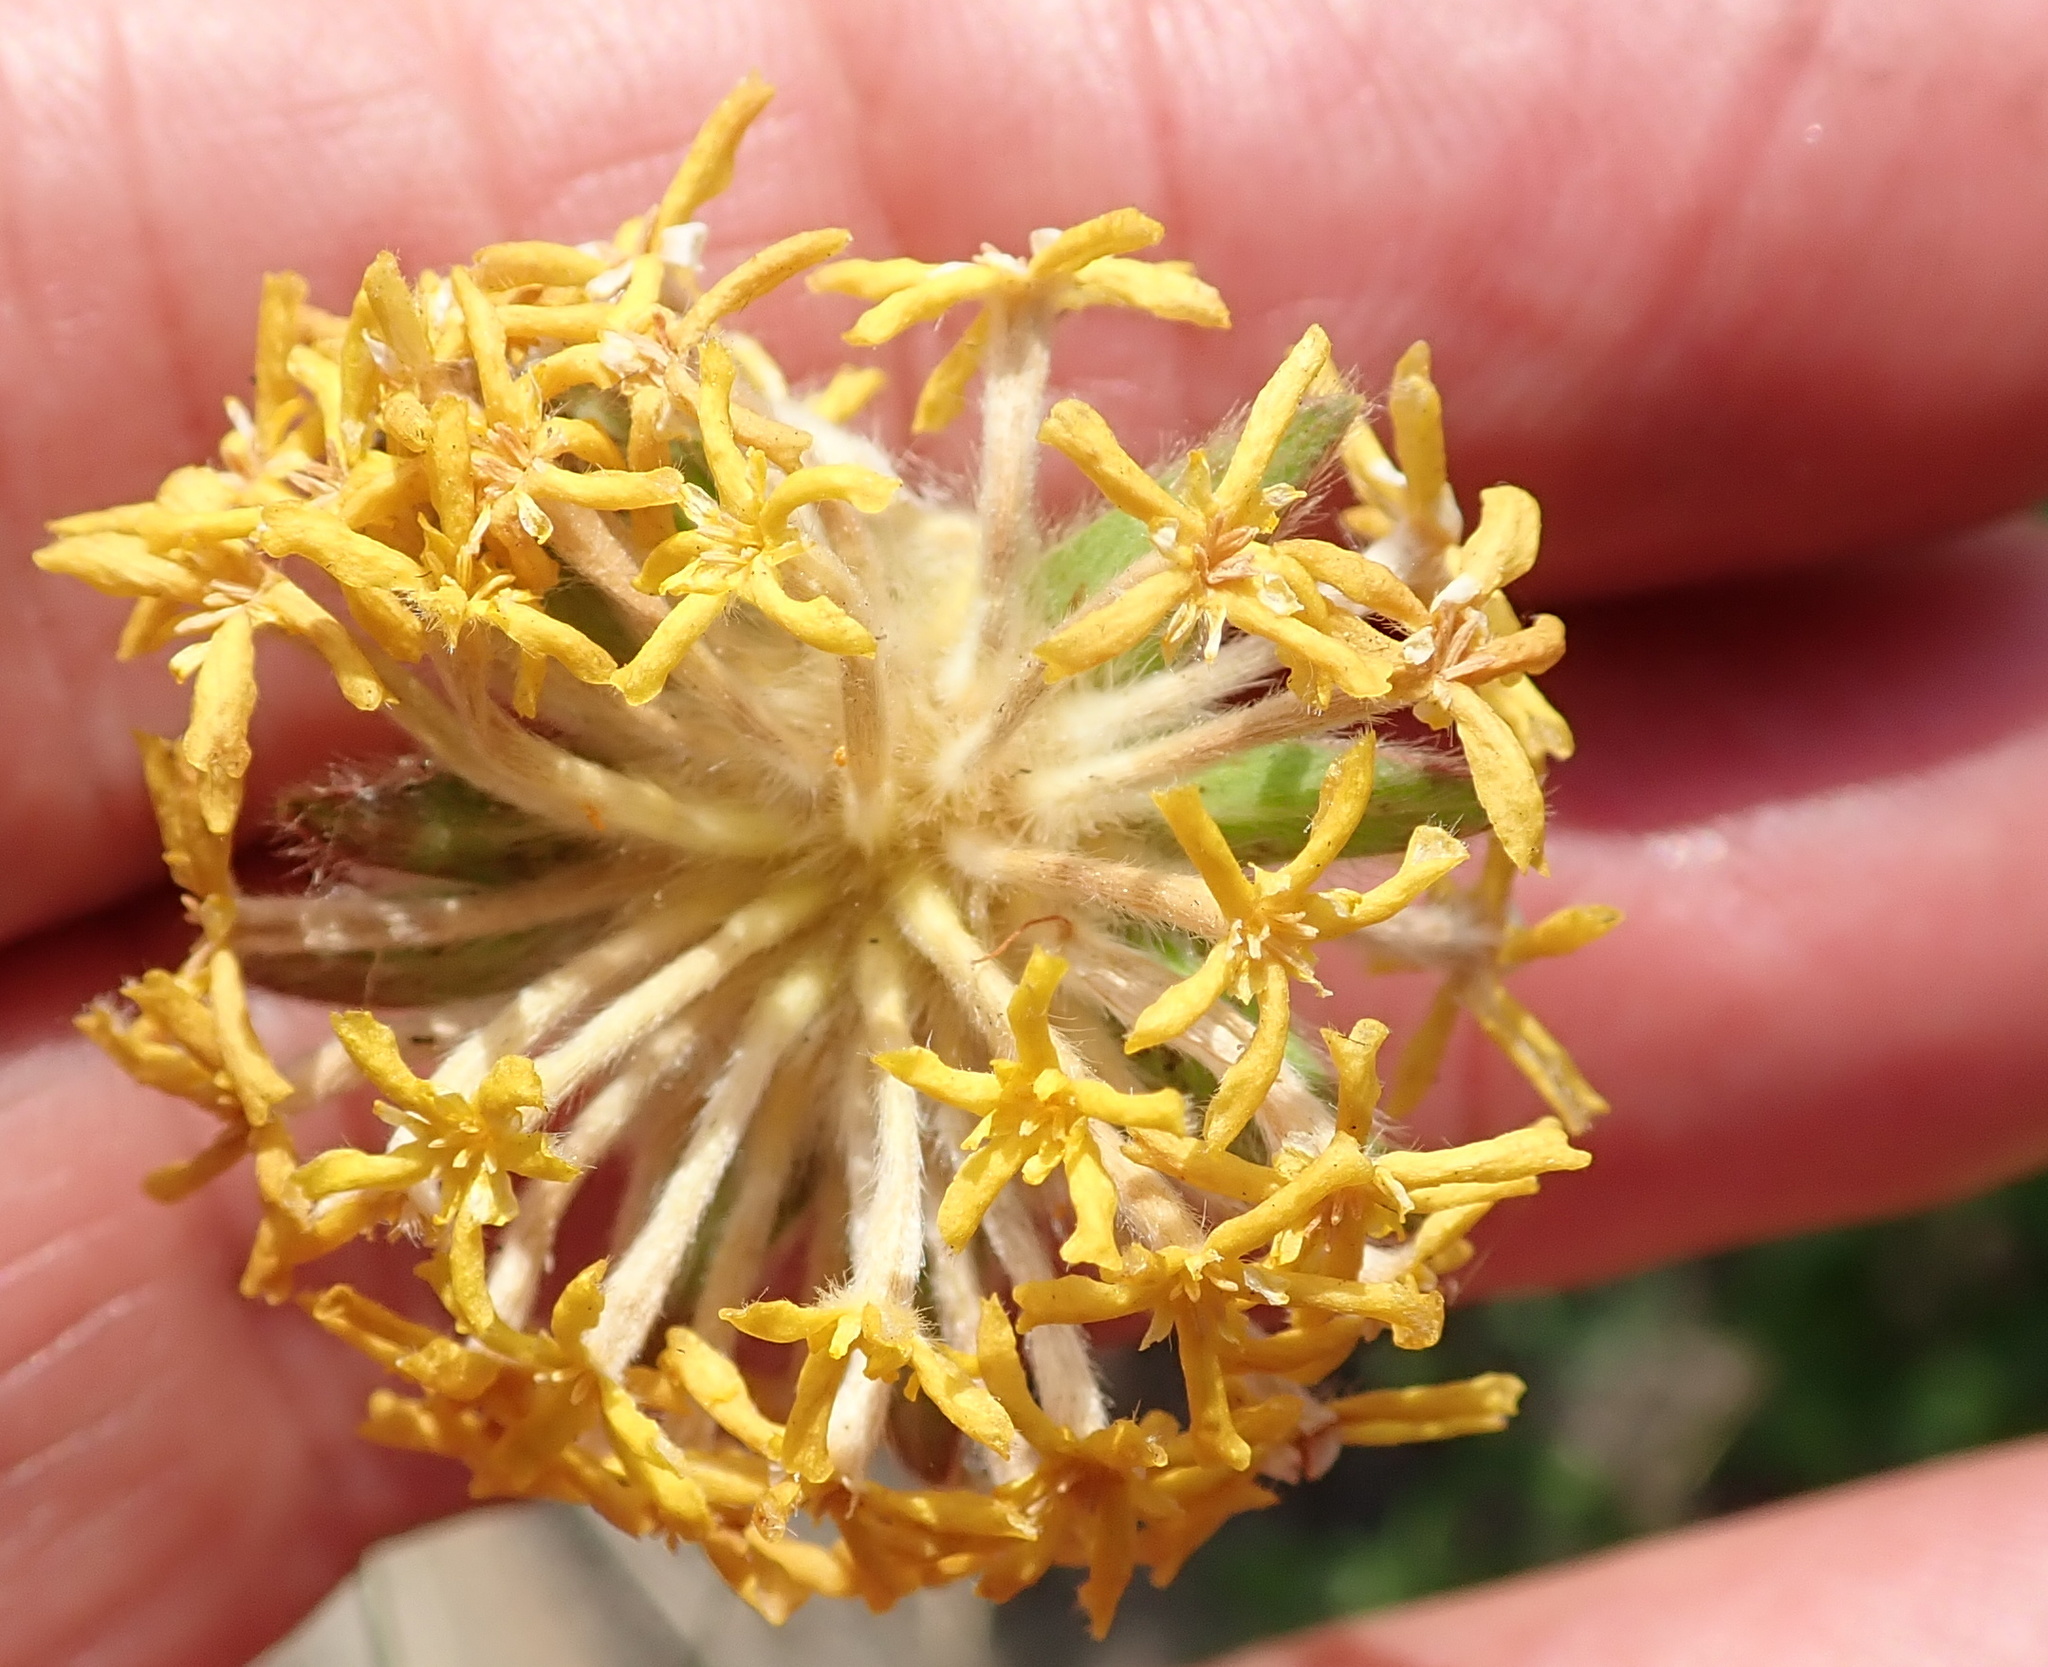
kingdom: Plantae
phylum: Tracheophyta
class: Magnoliopsida
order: Malvales
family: Thymelaeaceae
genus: Gnidia
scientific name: Gnidia kraussiana
